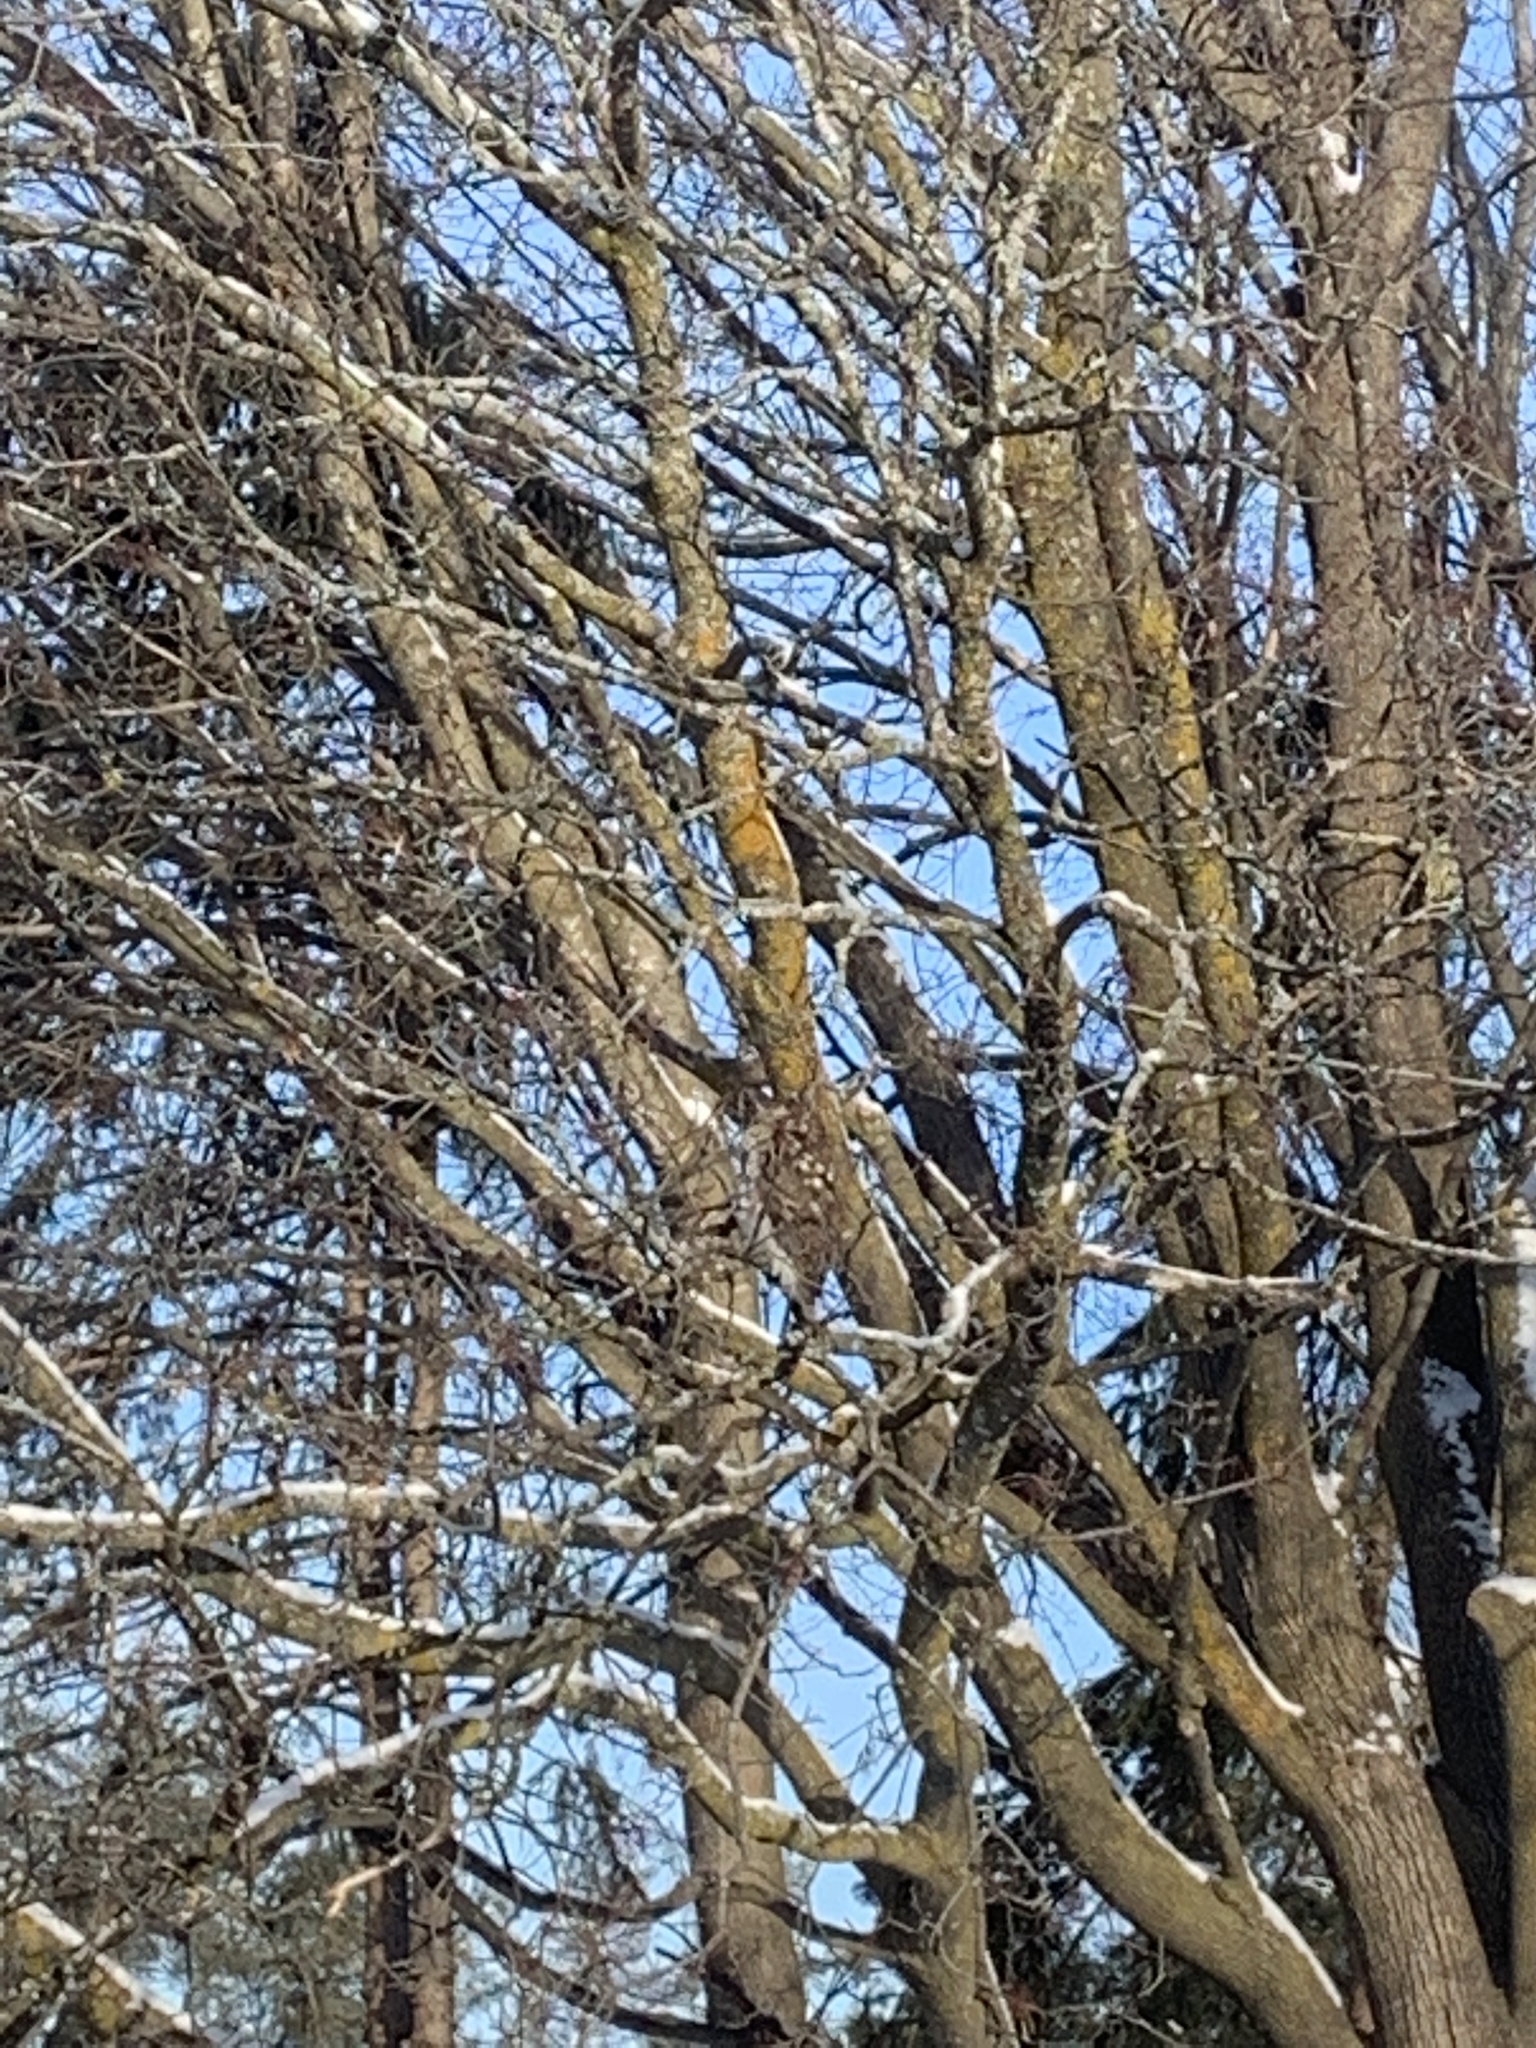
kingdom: Animalia
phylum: Chordata
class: Aves
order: Accipitriformes
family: Accipitridae
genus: Accipiter
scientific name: Accipiter
